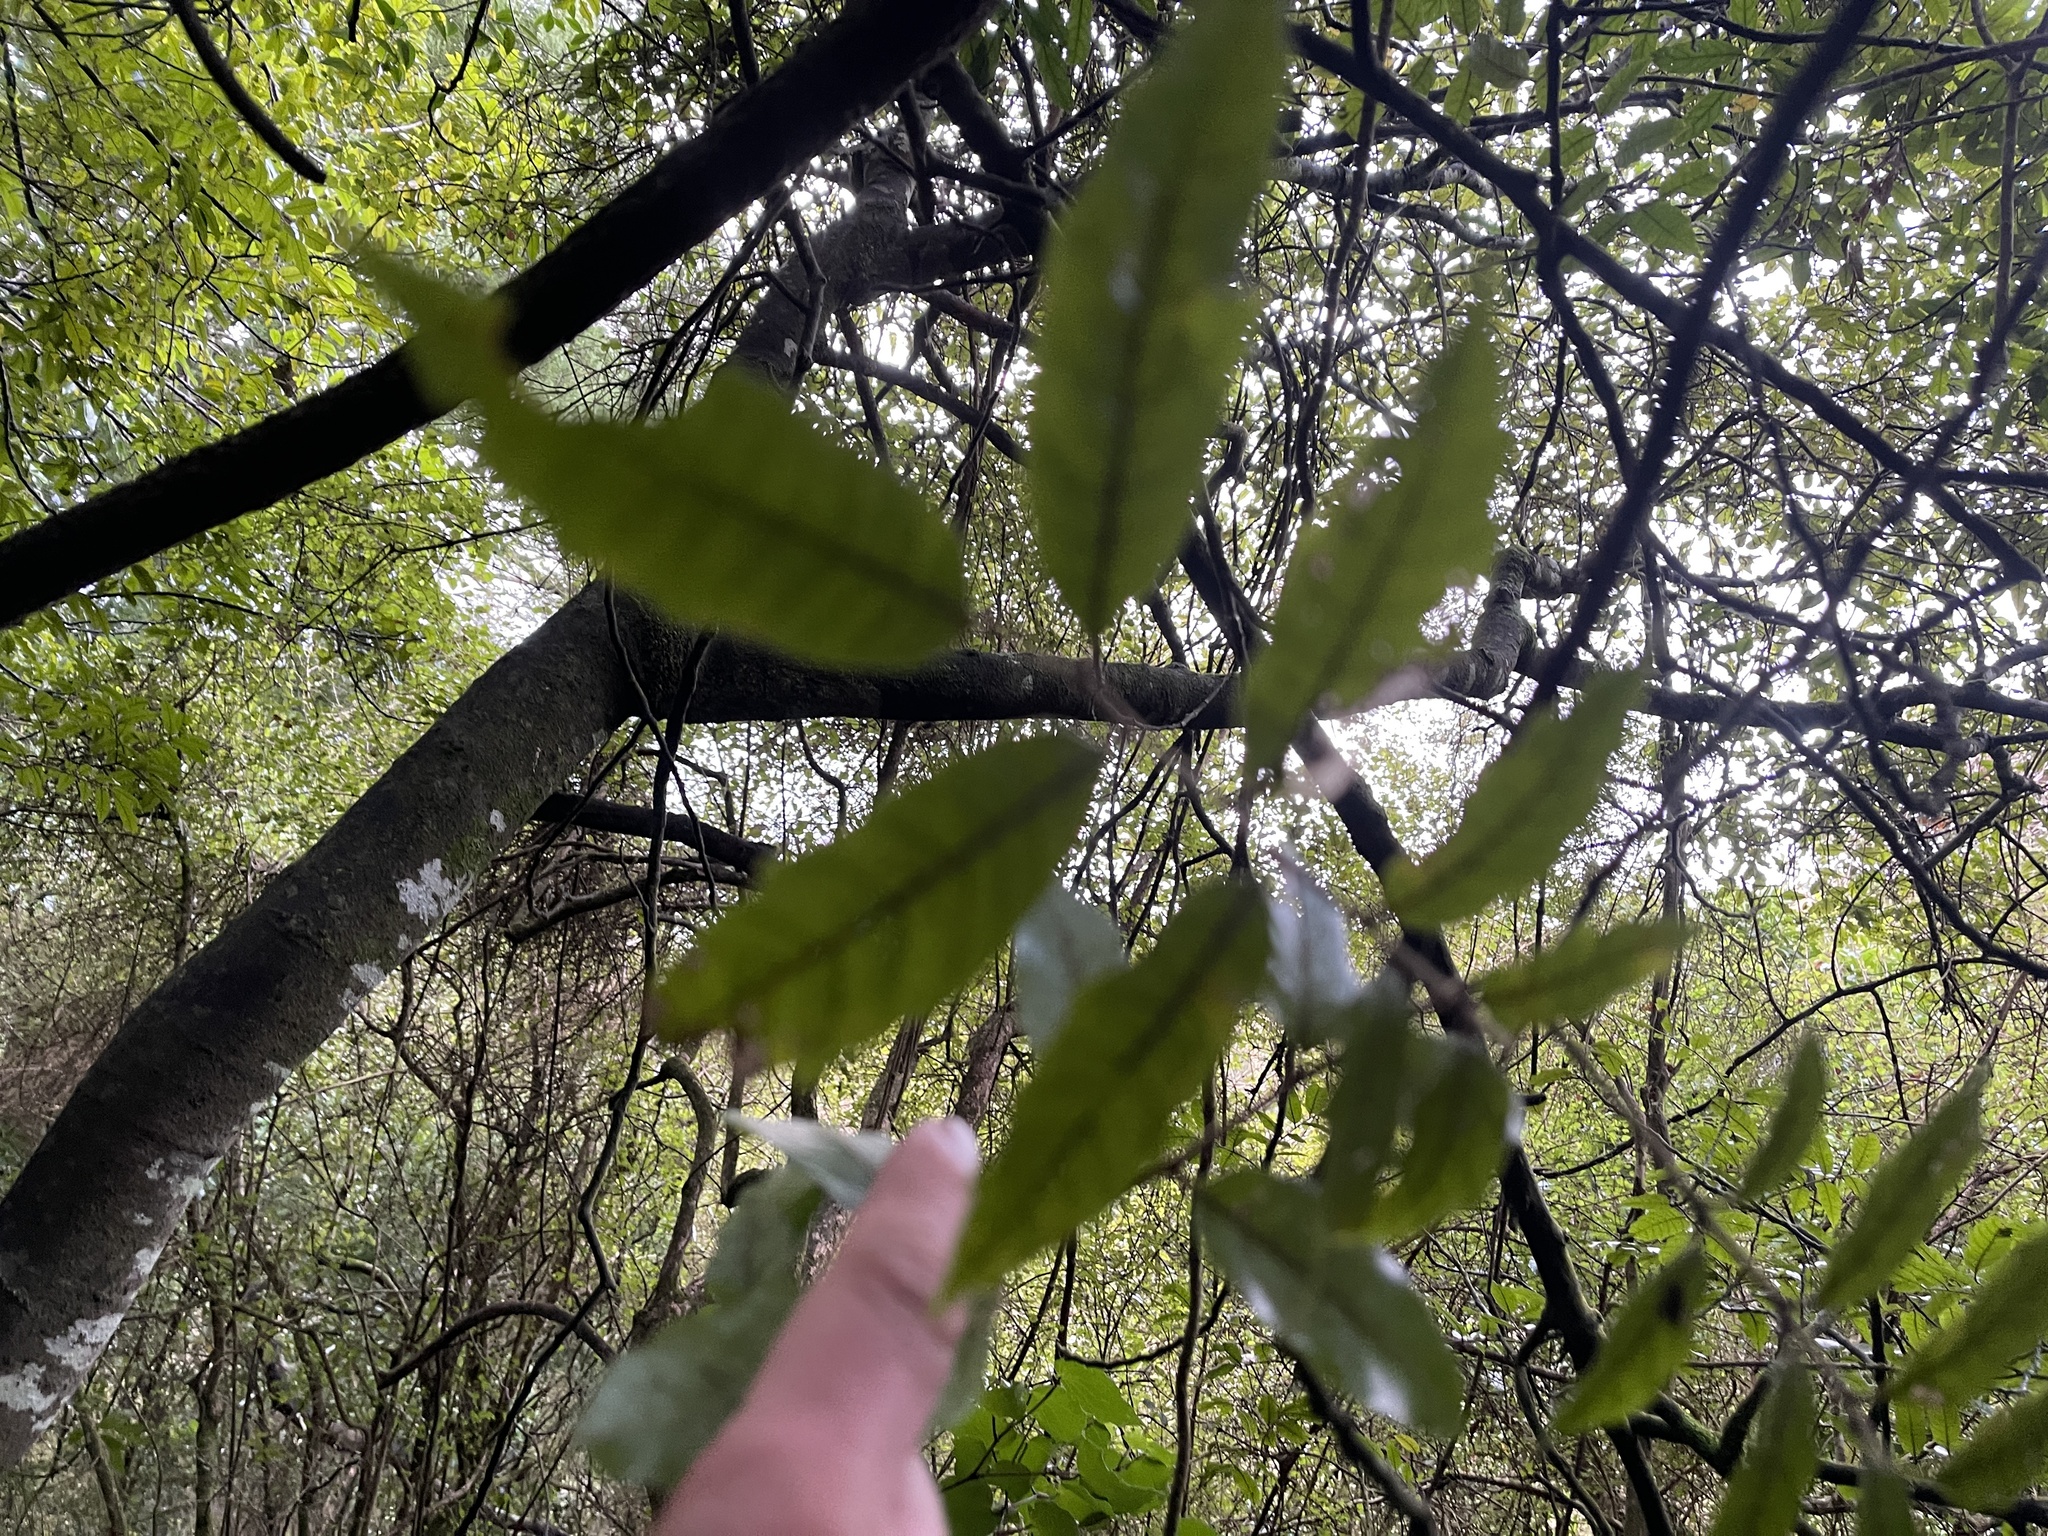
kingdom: Plantae
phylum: Tracheophyta
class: Magnoliopsida
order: Sapindales
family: Sapindaceae
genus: Alectryon
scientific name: Alectryon excelsus
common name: Three kings titoki
